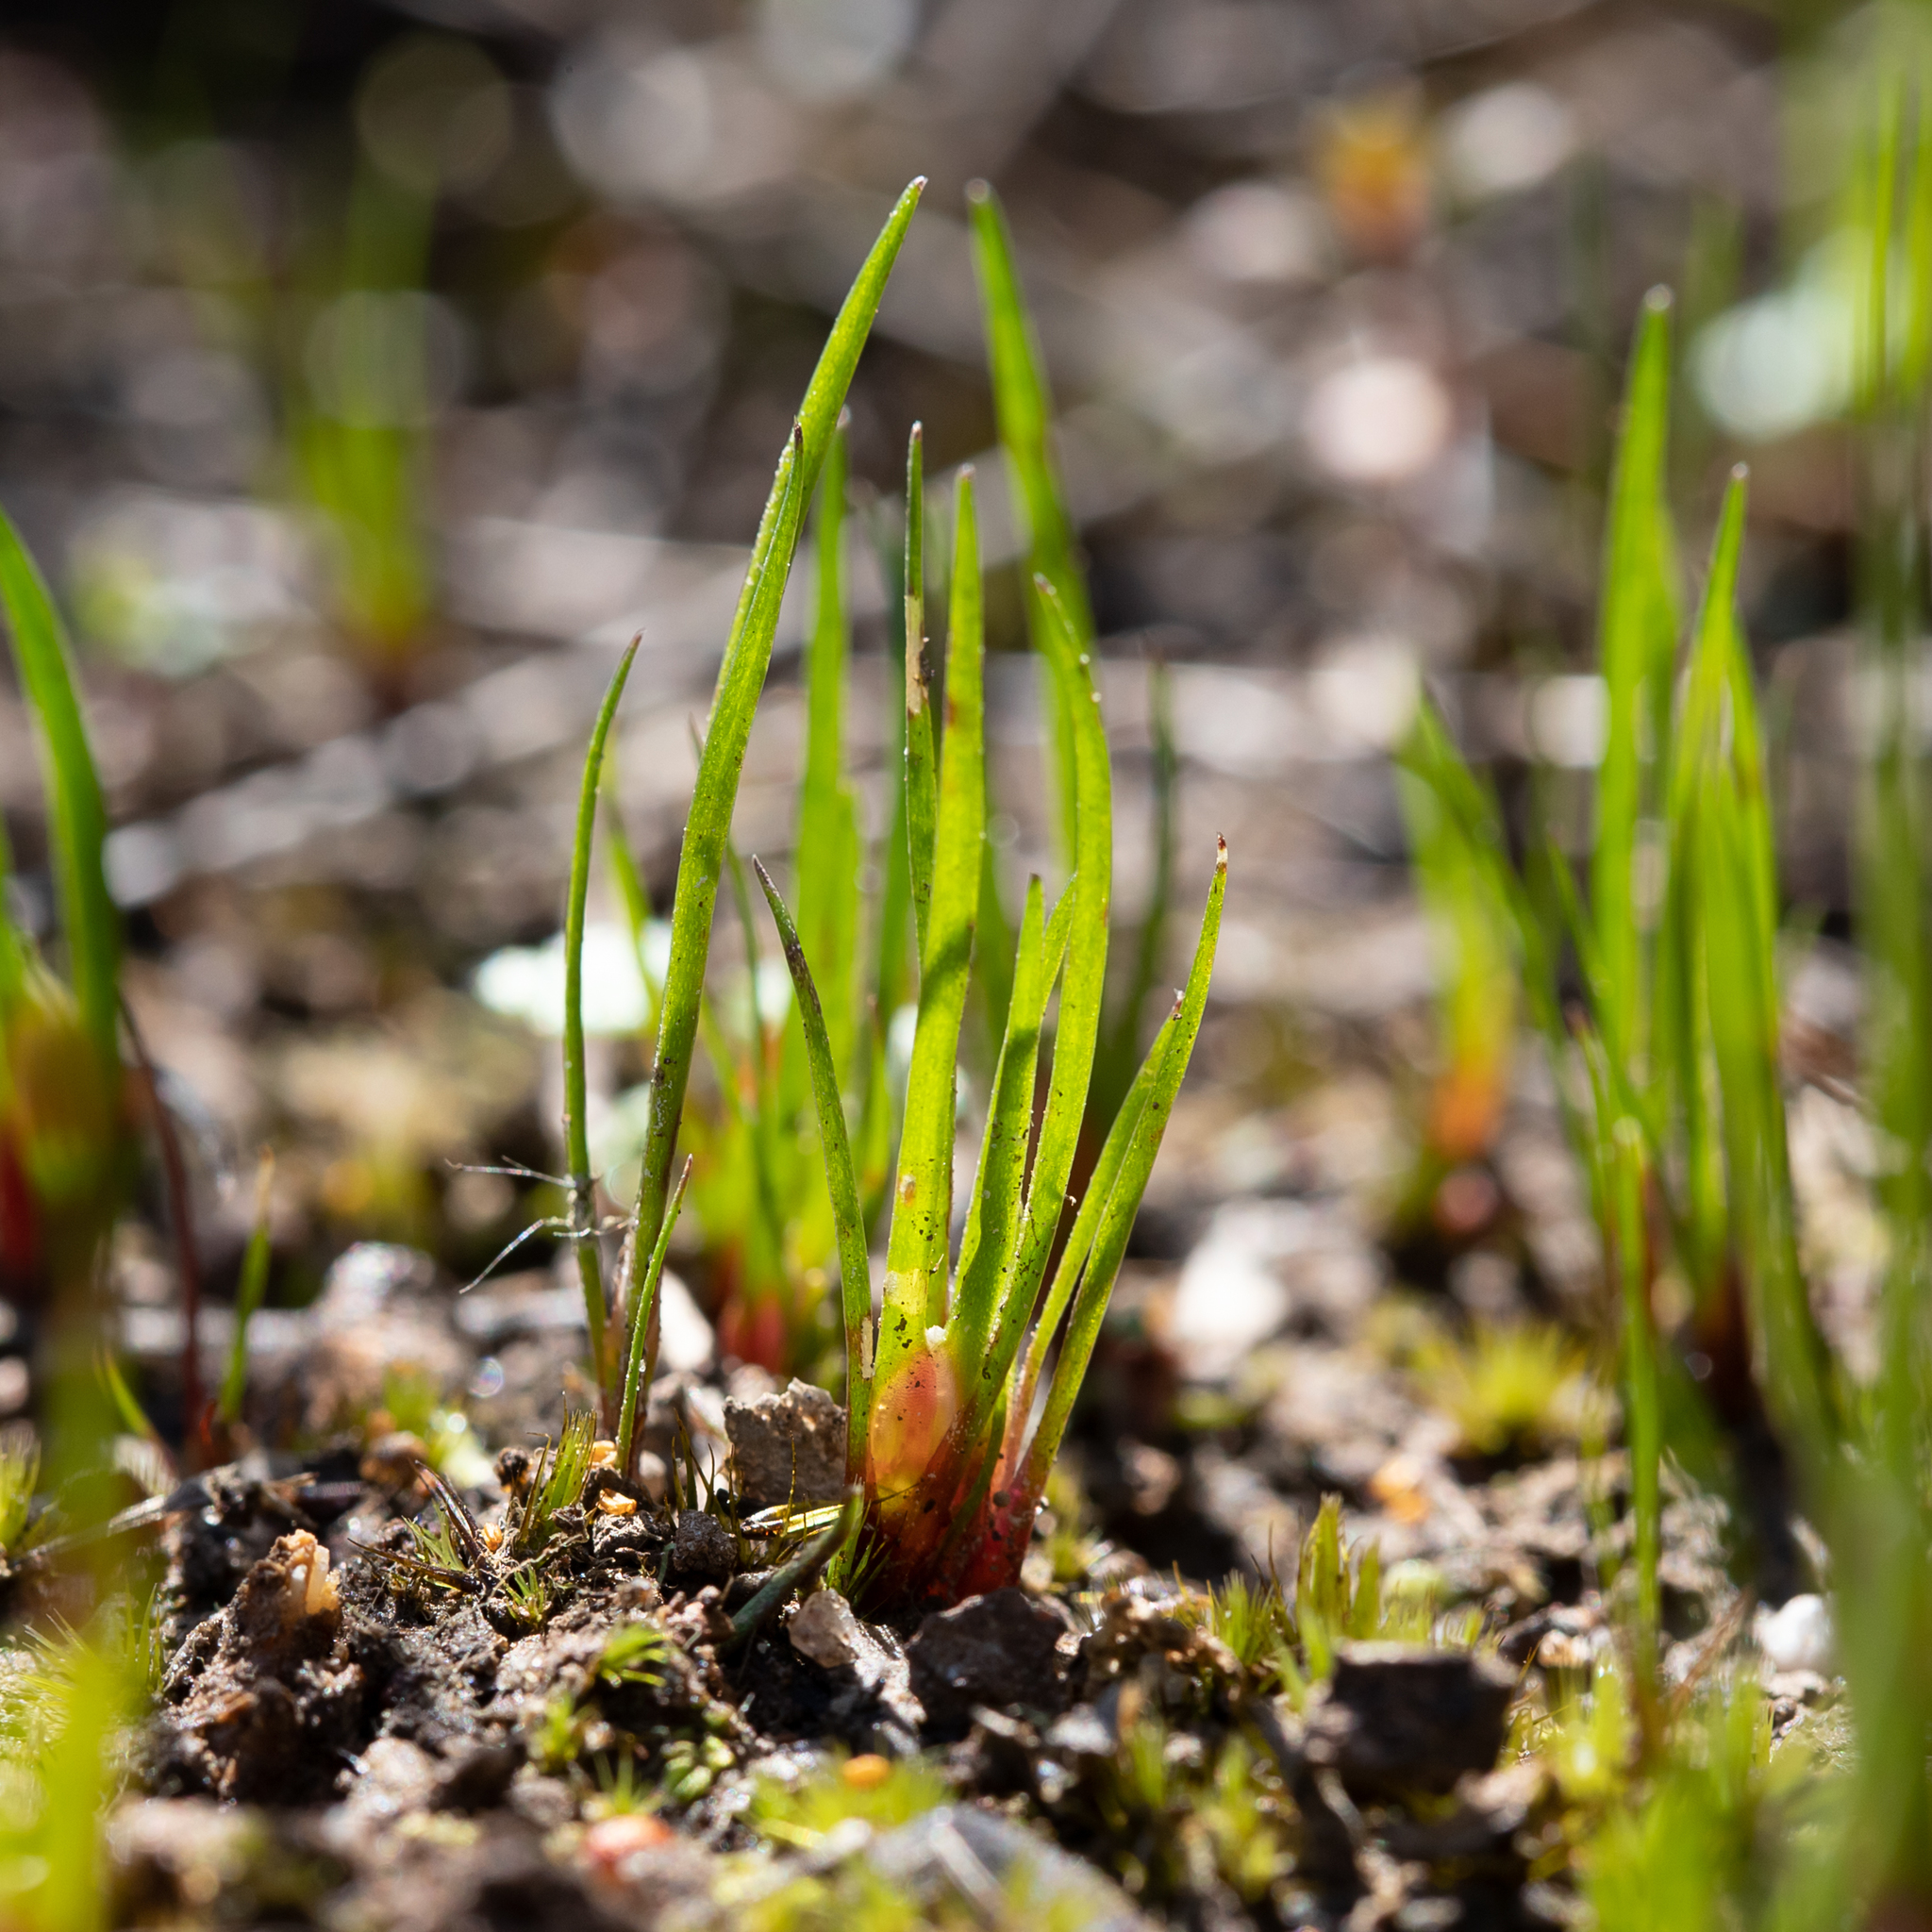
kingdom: Plantae
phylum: Tracheophyta
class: Liliopsida
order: Poales
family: Restionaceae
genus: Centrolepis
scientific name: Centrolepis aristata
